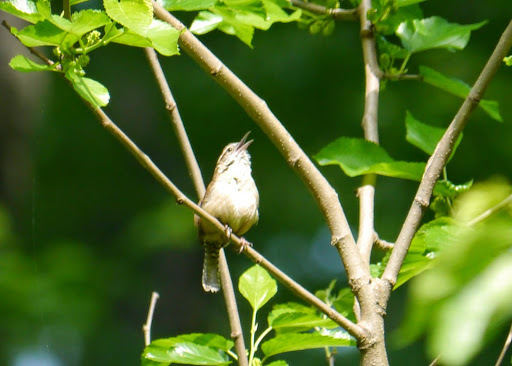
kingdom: Animalia
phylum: Chordata
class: Aves
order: Passeriformes
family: Troglodytidae
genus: Thryothorus
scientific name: Thryothorus ludovicianus
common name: Carolina wren
